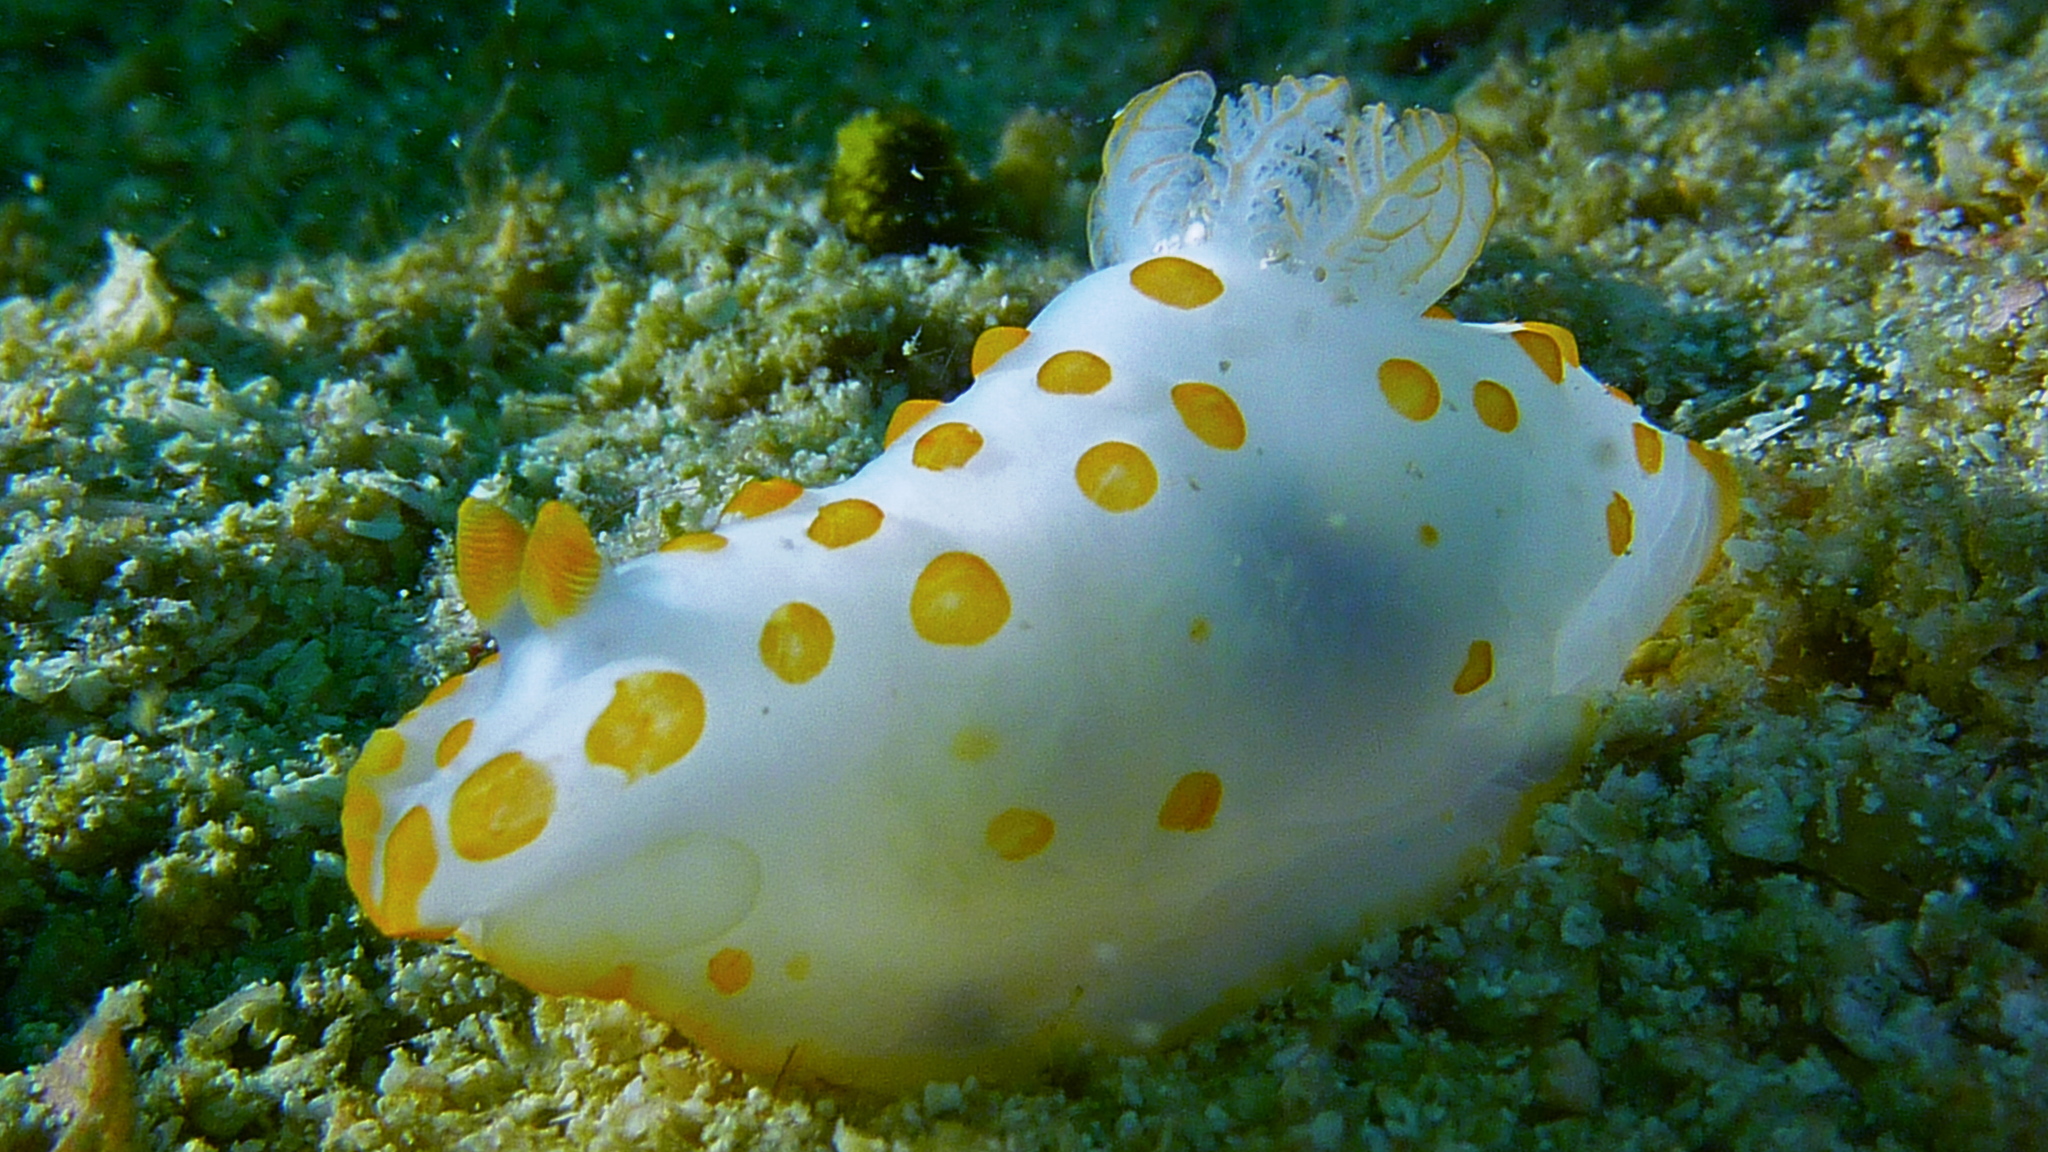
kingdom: Animalia
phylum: Mollusca
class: Gastropoda
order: Nudibranchia
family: Polyceridae
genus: Gymnodoris
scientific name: Gymnodoris impudica
